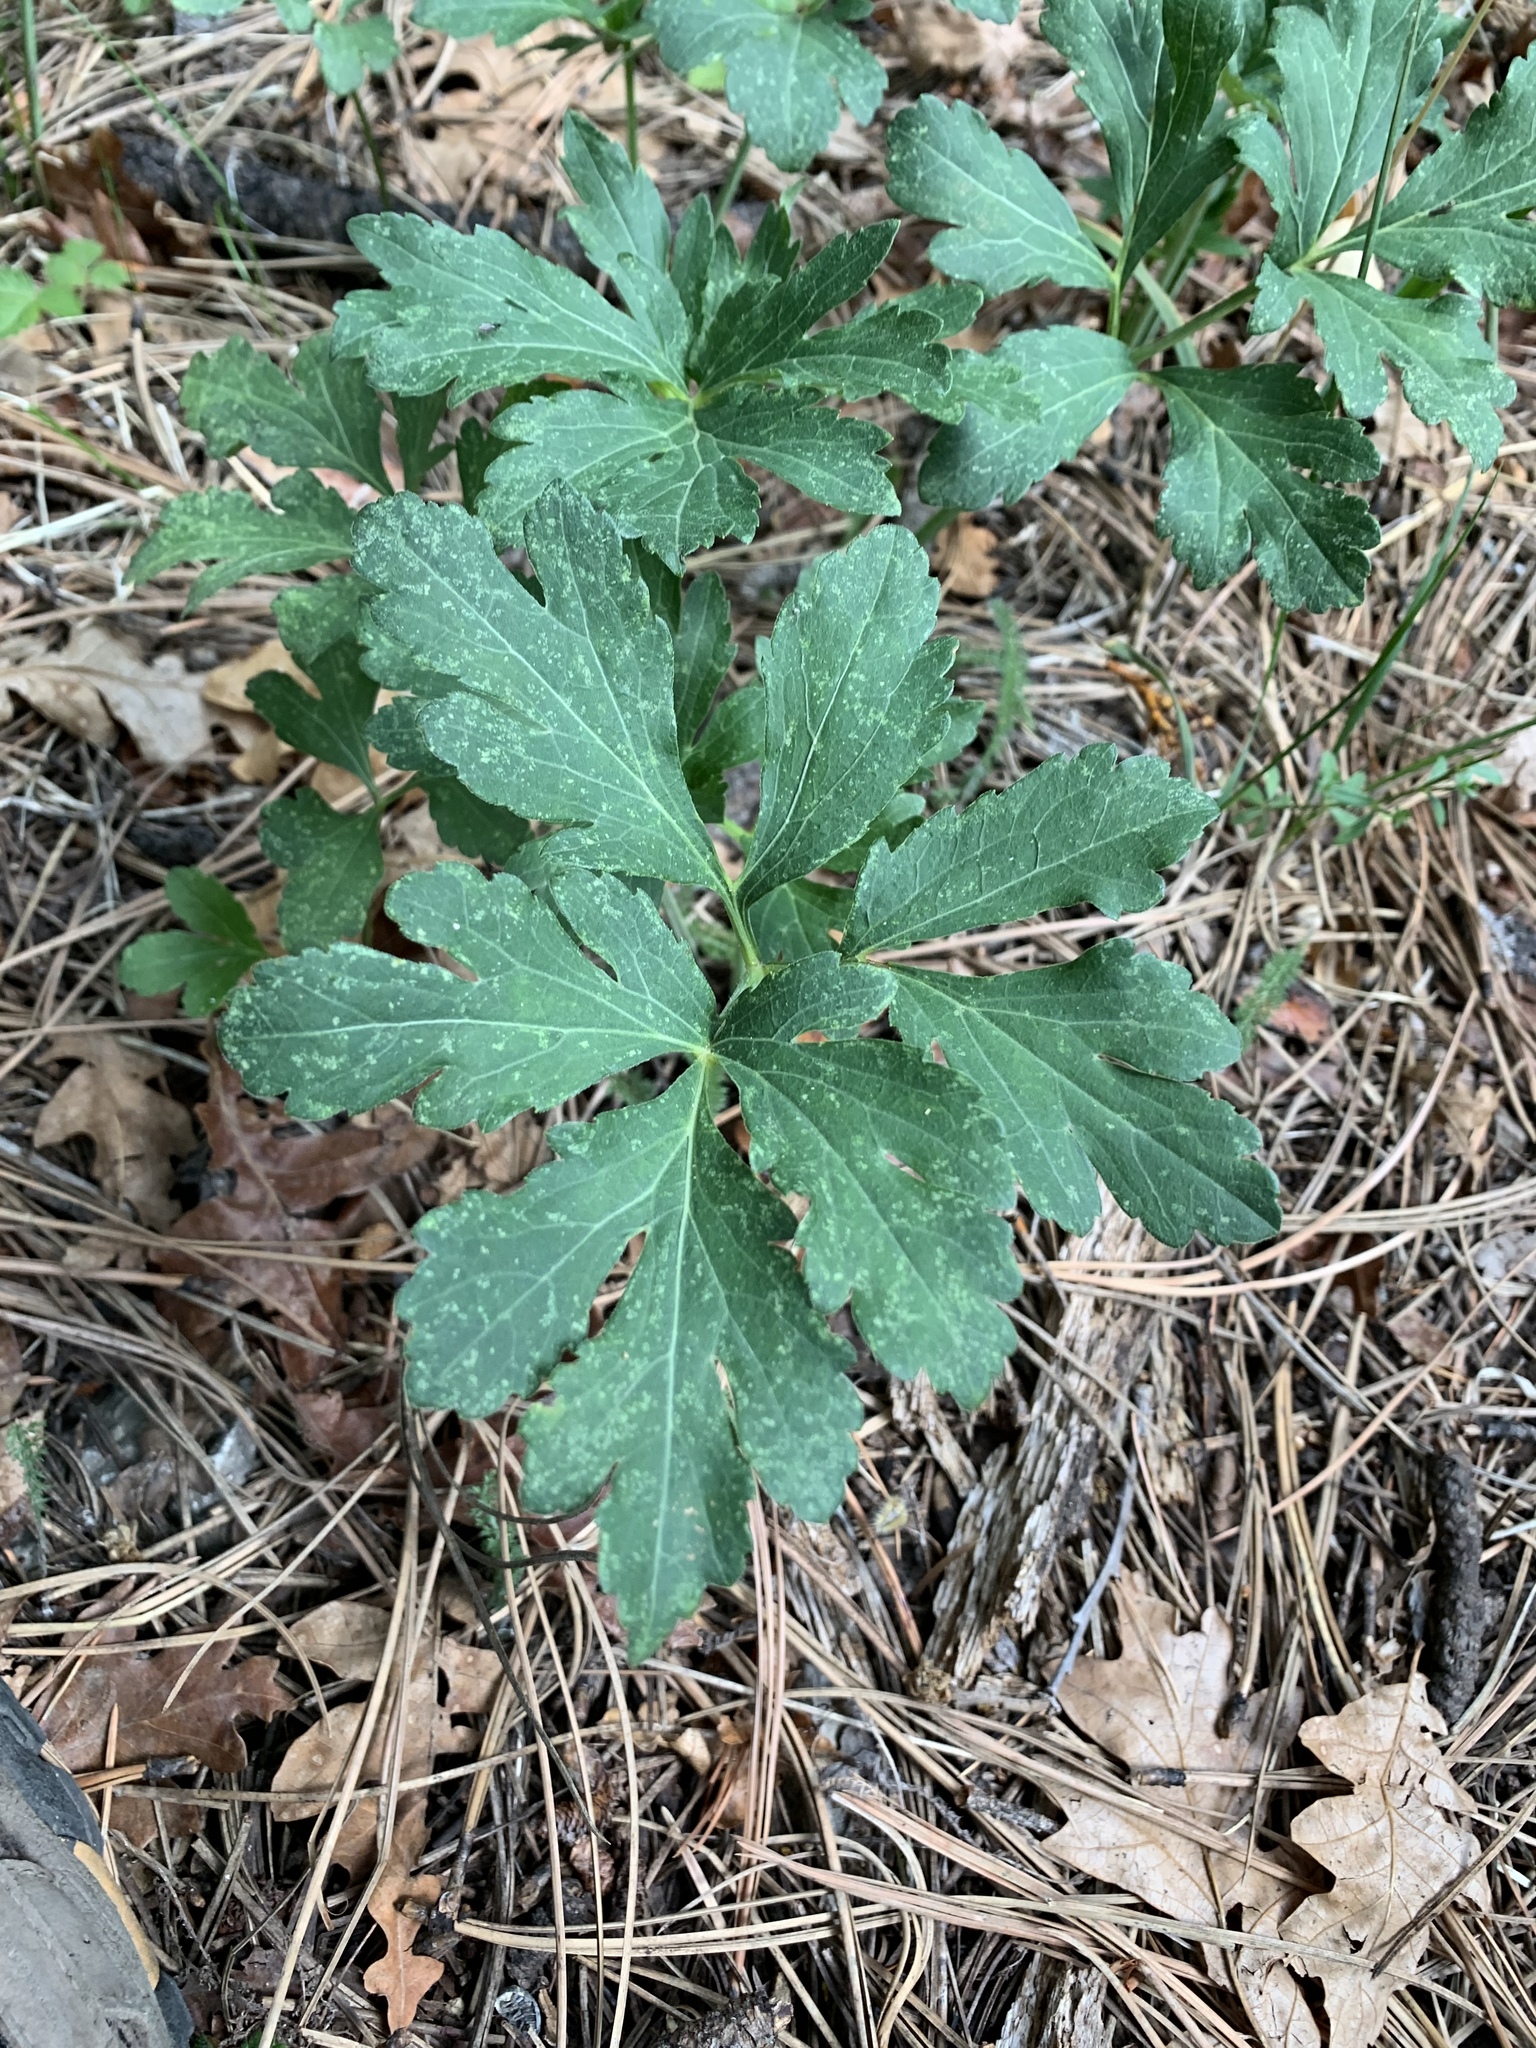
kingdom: Plantae
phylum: Tracheophyta
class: Magnoliopsida
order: Asterales
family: Asteraceae
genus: Rudbeckia
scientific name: Rudbeckia laciniata
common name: Coneflower
